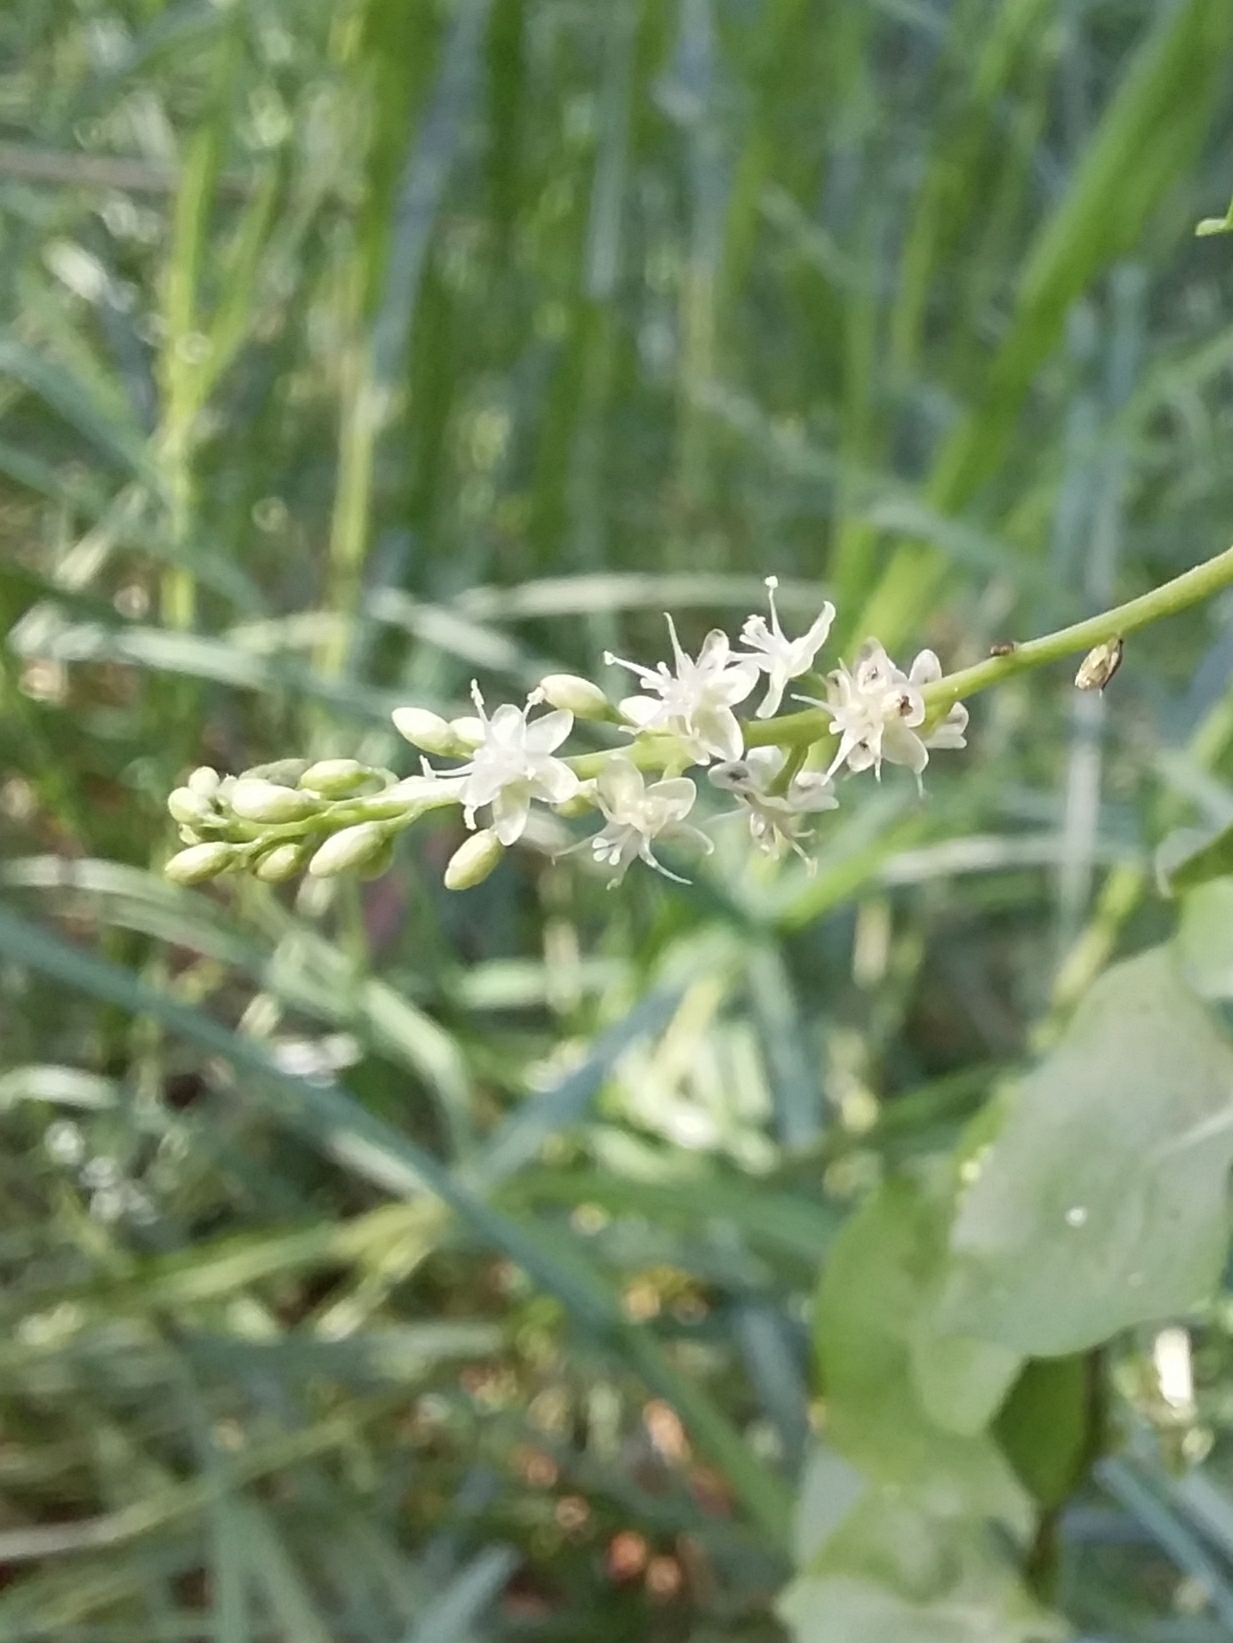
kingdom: Plantae
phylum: Tracheophyta
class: Magnoliopsida
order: Caryophyllales
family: Basellaceae
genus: Anredera
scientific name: Anredera cordifolia
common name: Heartleaf madeiravine
